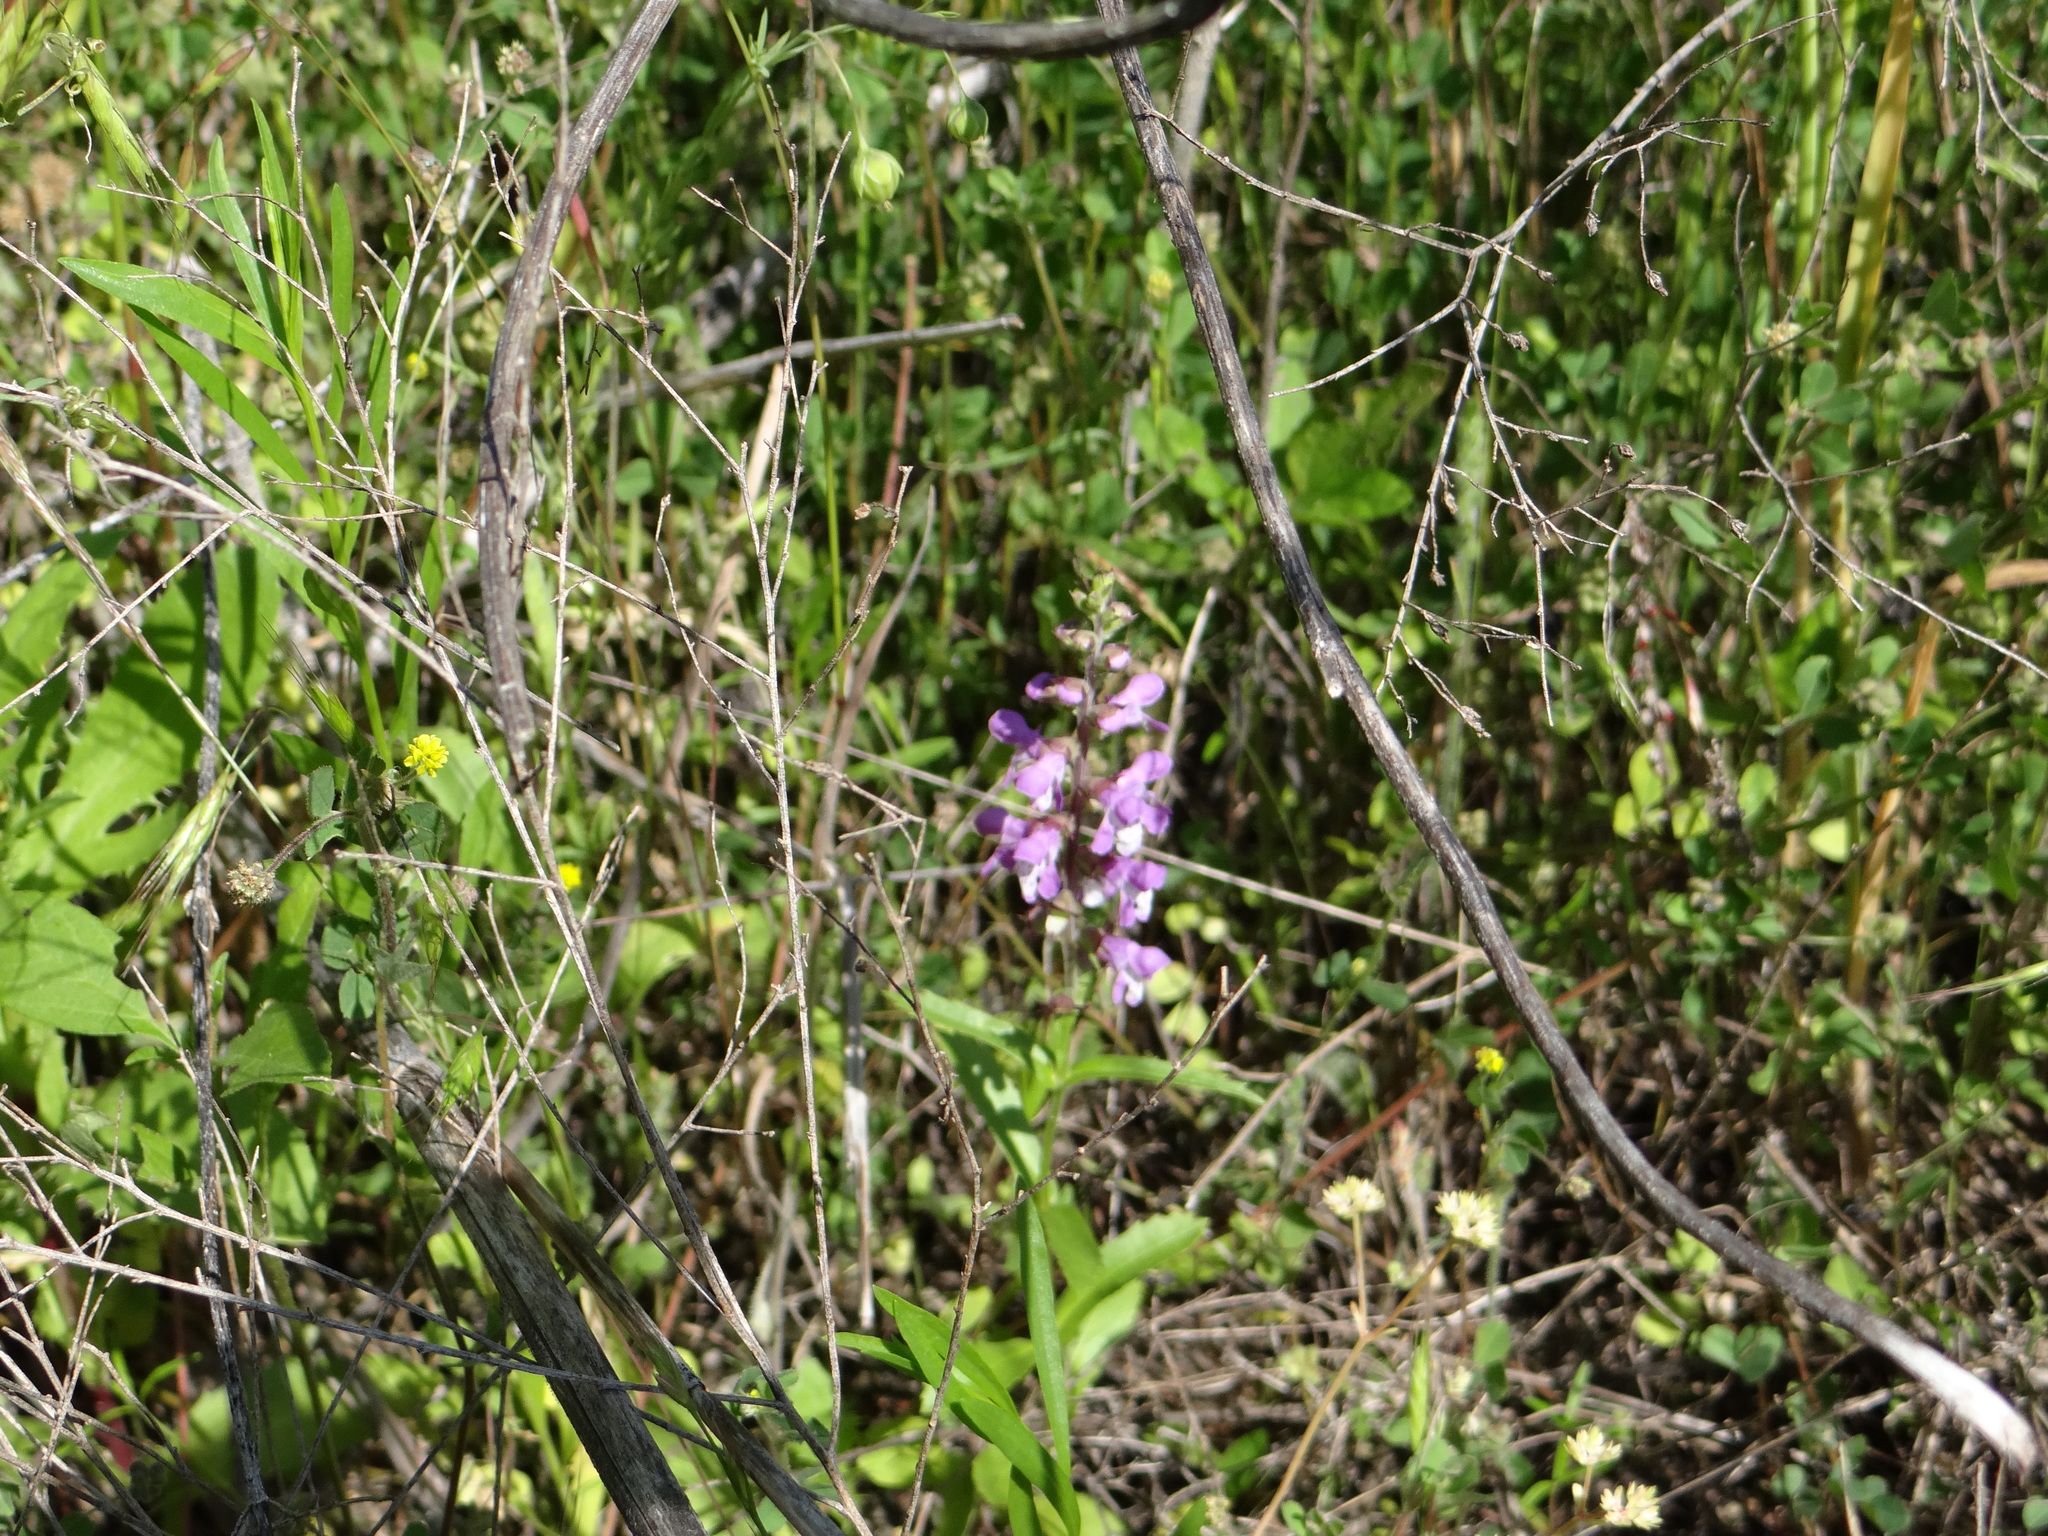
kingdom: Plantae
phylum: Tracheophyta
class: Magnoliopsida
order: Lamiales
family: Lamiaceae
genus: Warnockia
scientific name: Warnockia scutellarioides
